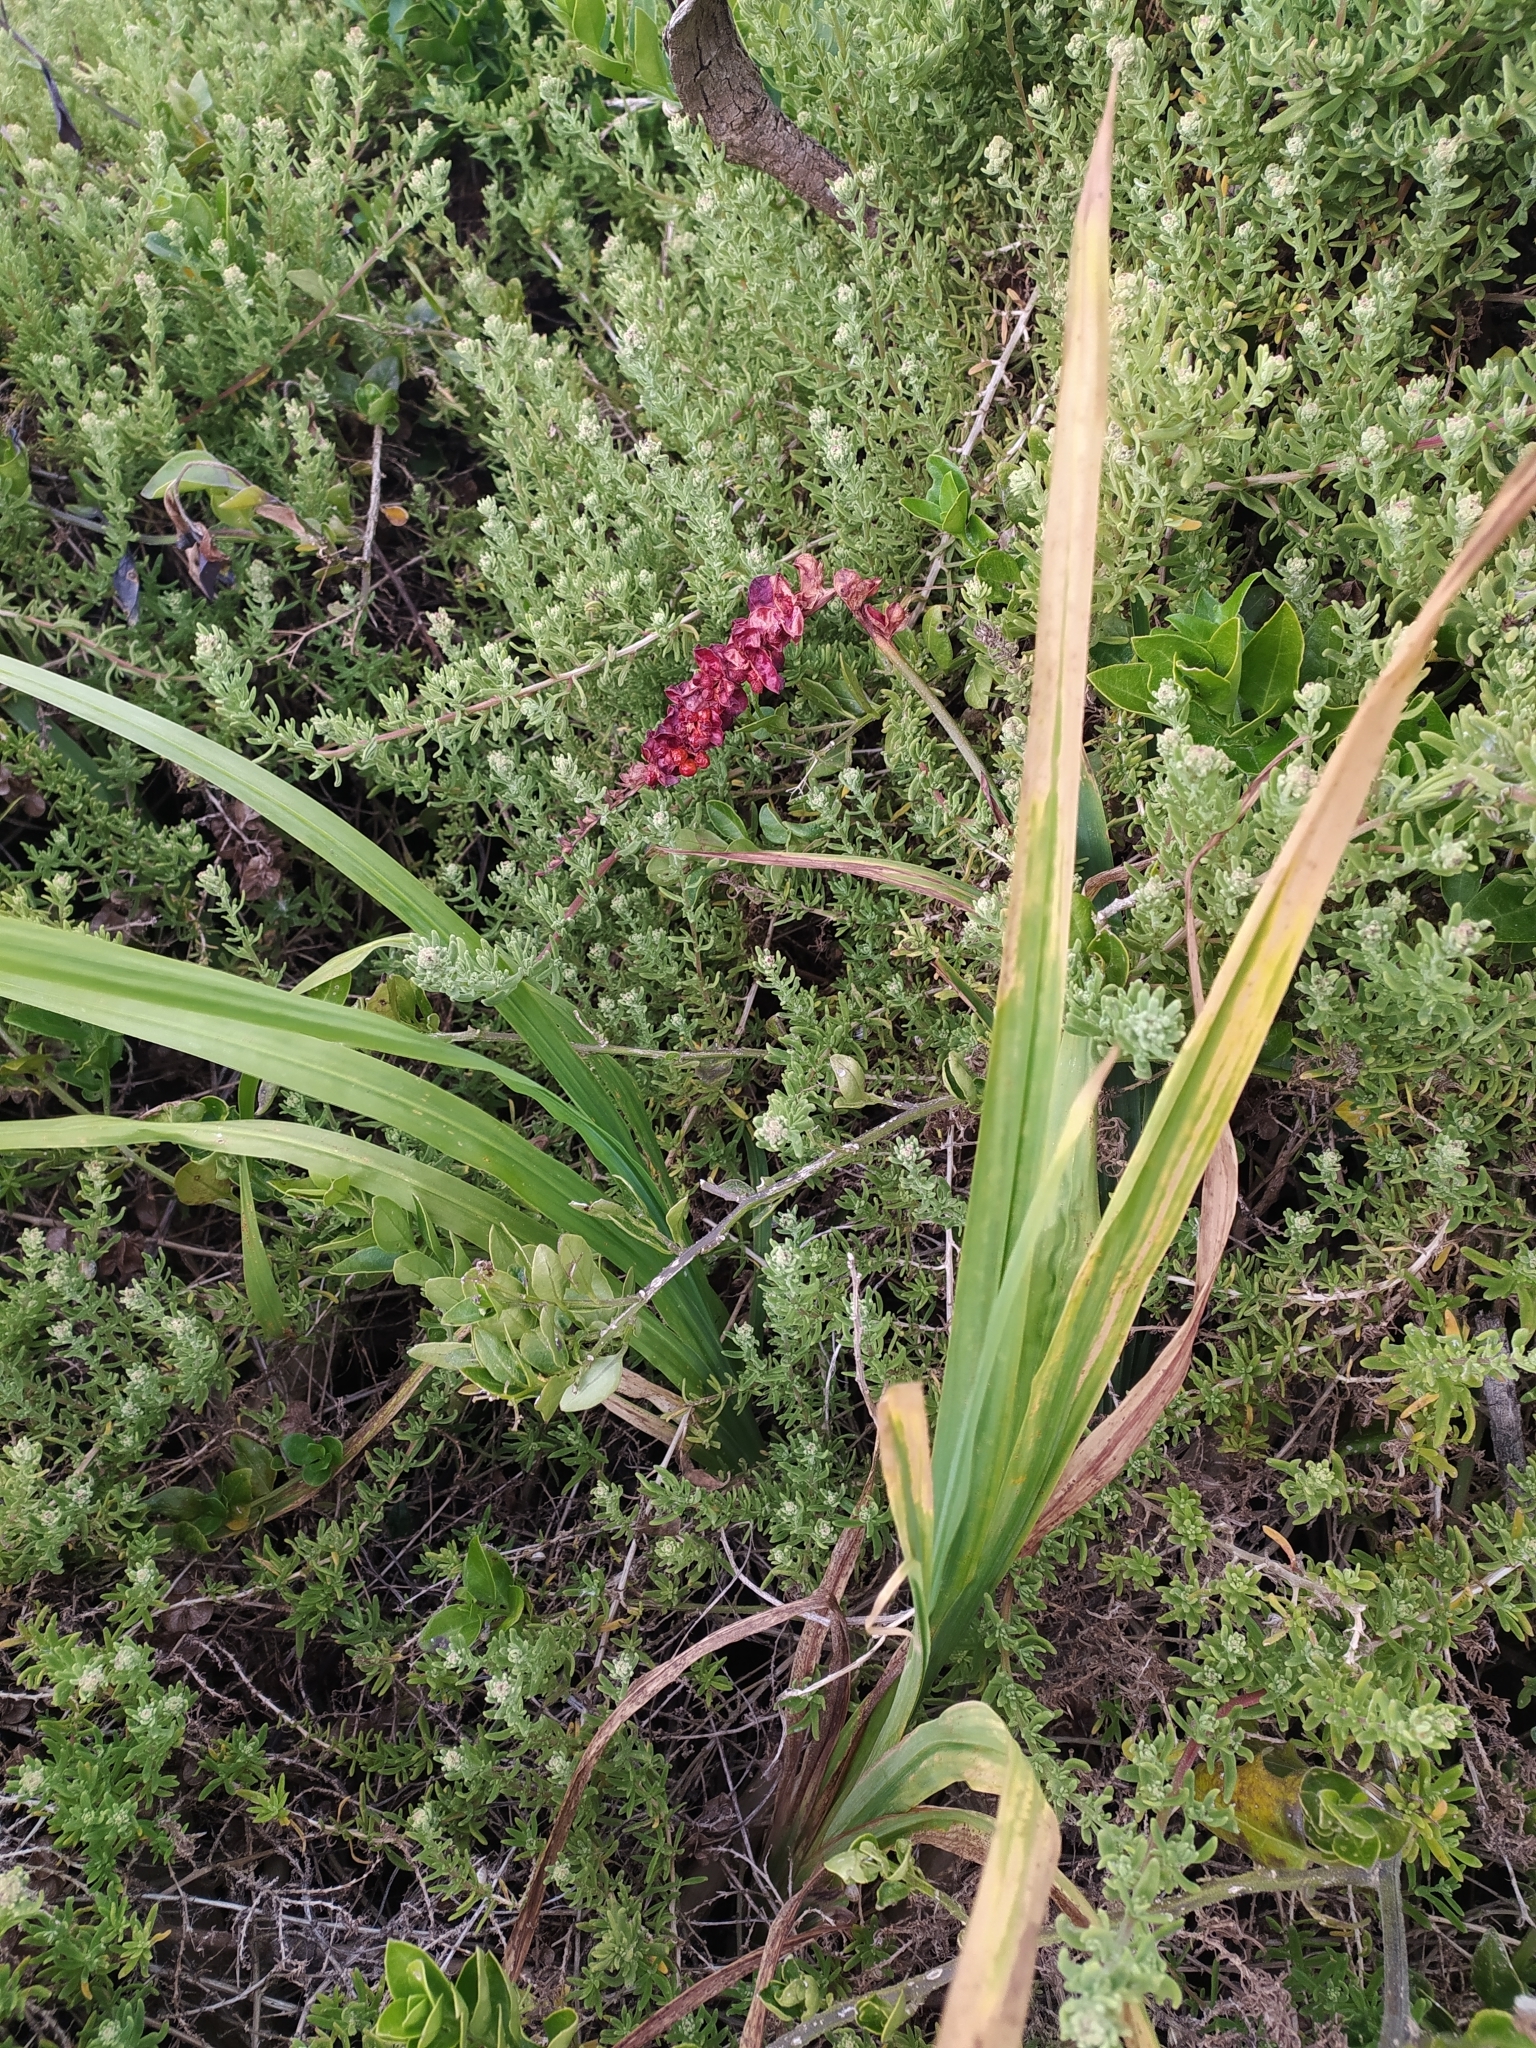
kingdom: Plantae
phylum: Tracheophyta
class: Liliopsida
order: Asparagales
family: Iridaceae
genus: Chasmanthe
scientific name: Chasmanthe aethiopica
